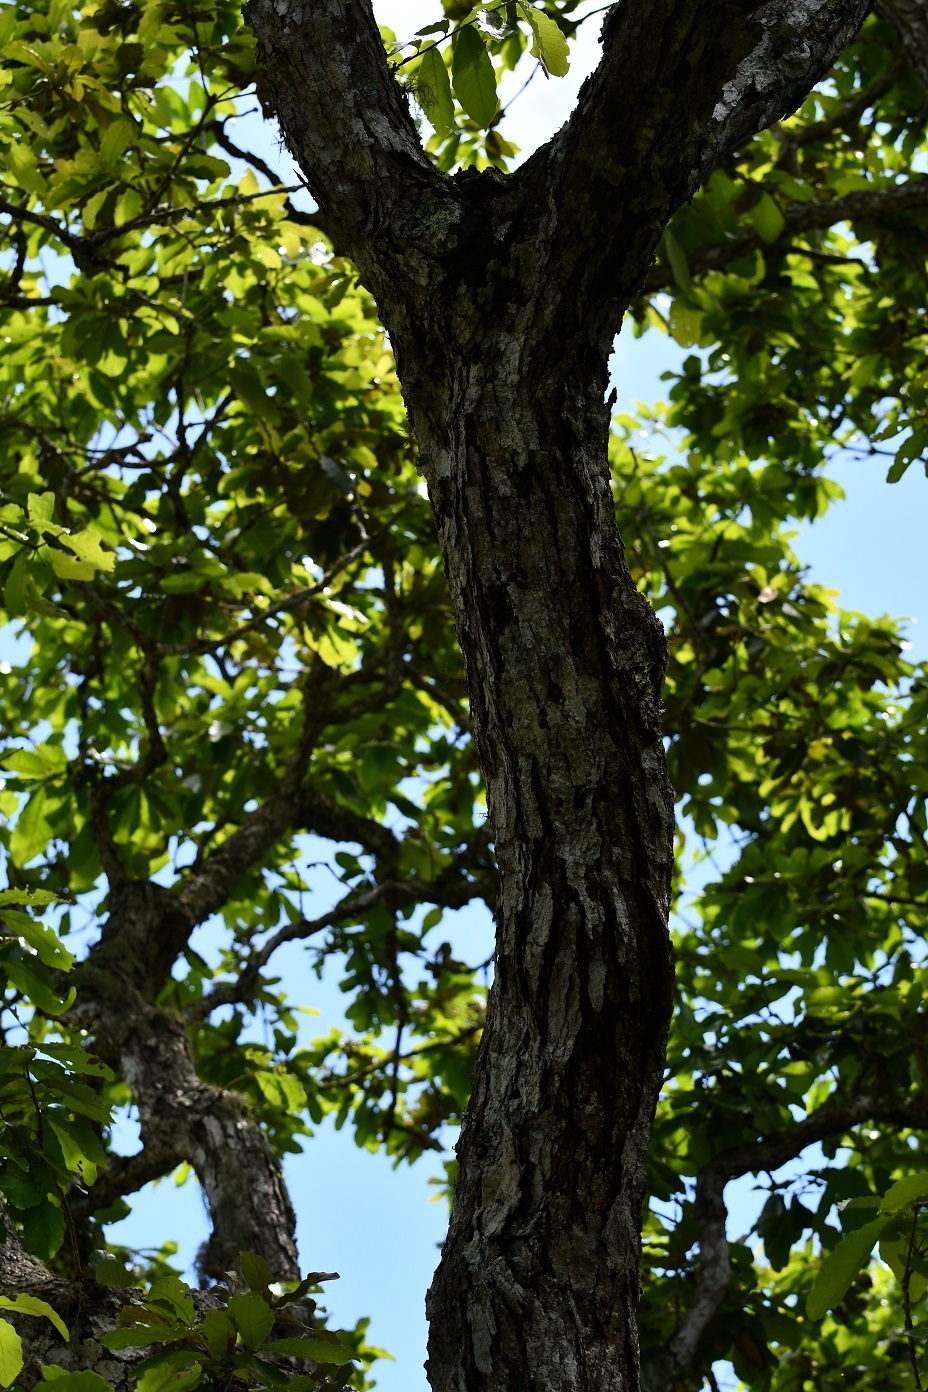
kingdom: Plantae
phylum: Tracheophyta
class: Magnoliopsida
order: Fagales
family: Fagaceae
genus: Quercus
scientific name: Quercus purulhana
